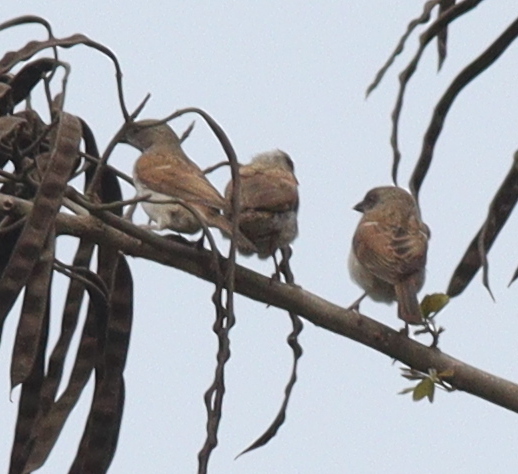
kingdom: Animalia
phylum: Chordata
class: Aves
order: Passeriformes
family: Passeridae
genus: Passer
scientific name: Passer griseus
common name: Northern grey-headed sparrow
